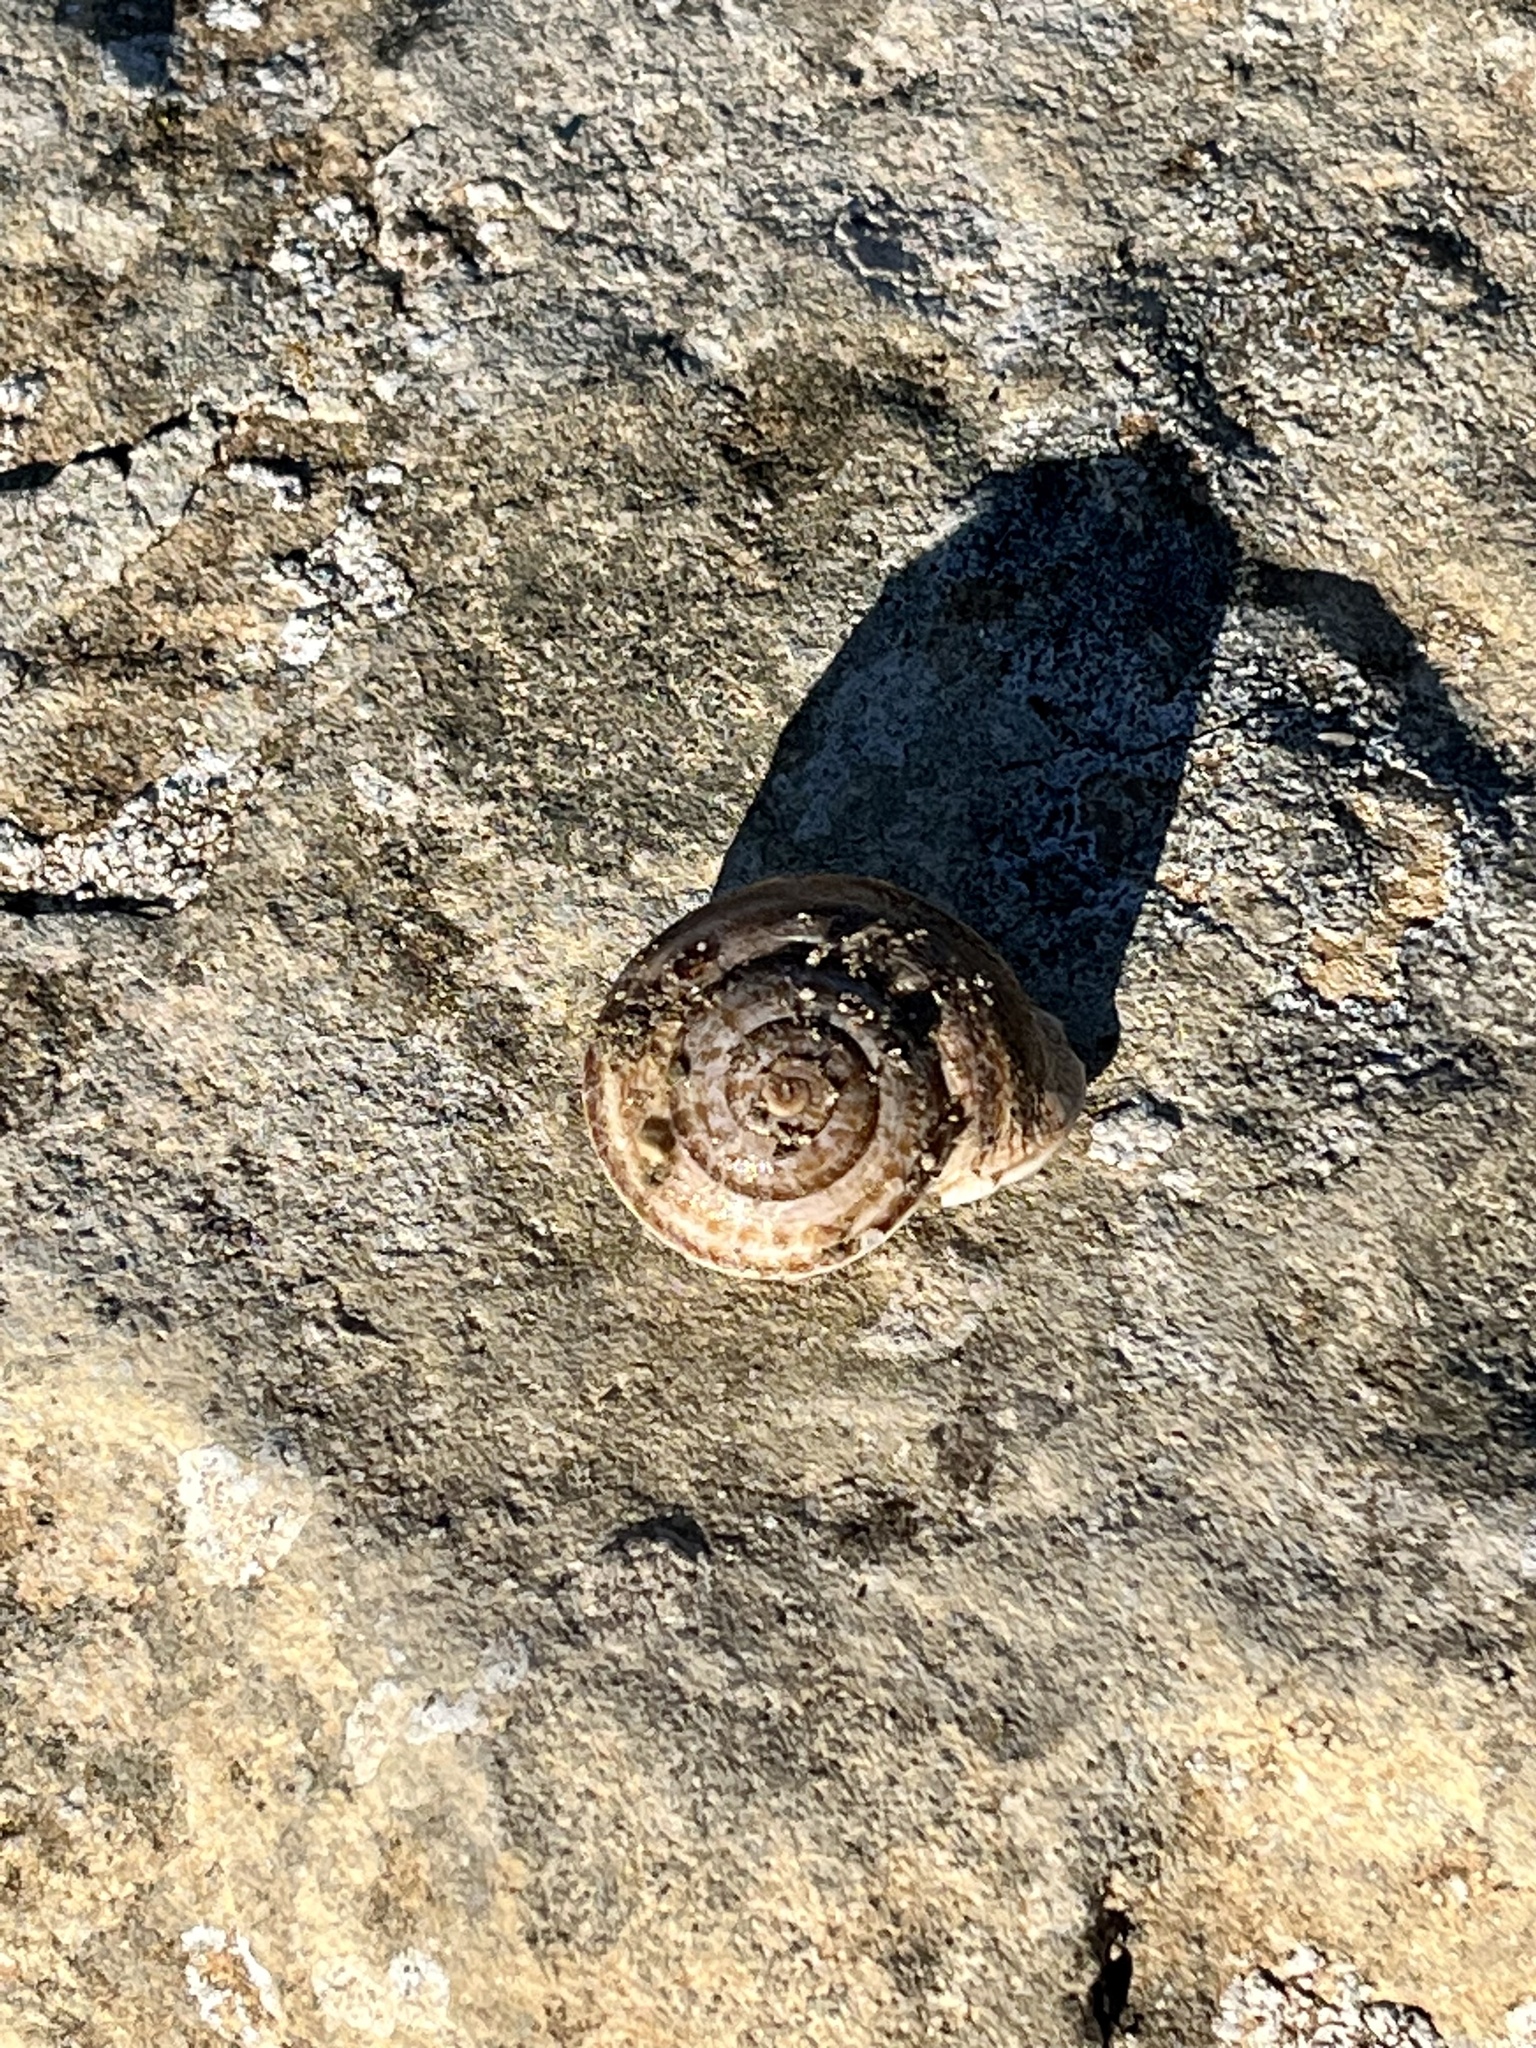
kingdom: Animalia
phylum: Mollusca
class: Gastropoda
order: Stylommatophora
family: Helicidae
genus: Otala
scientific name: Otala lactea
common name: Milk snail
